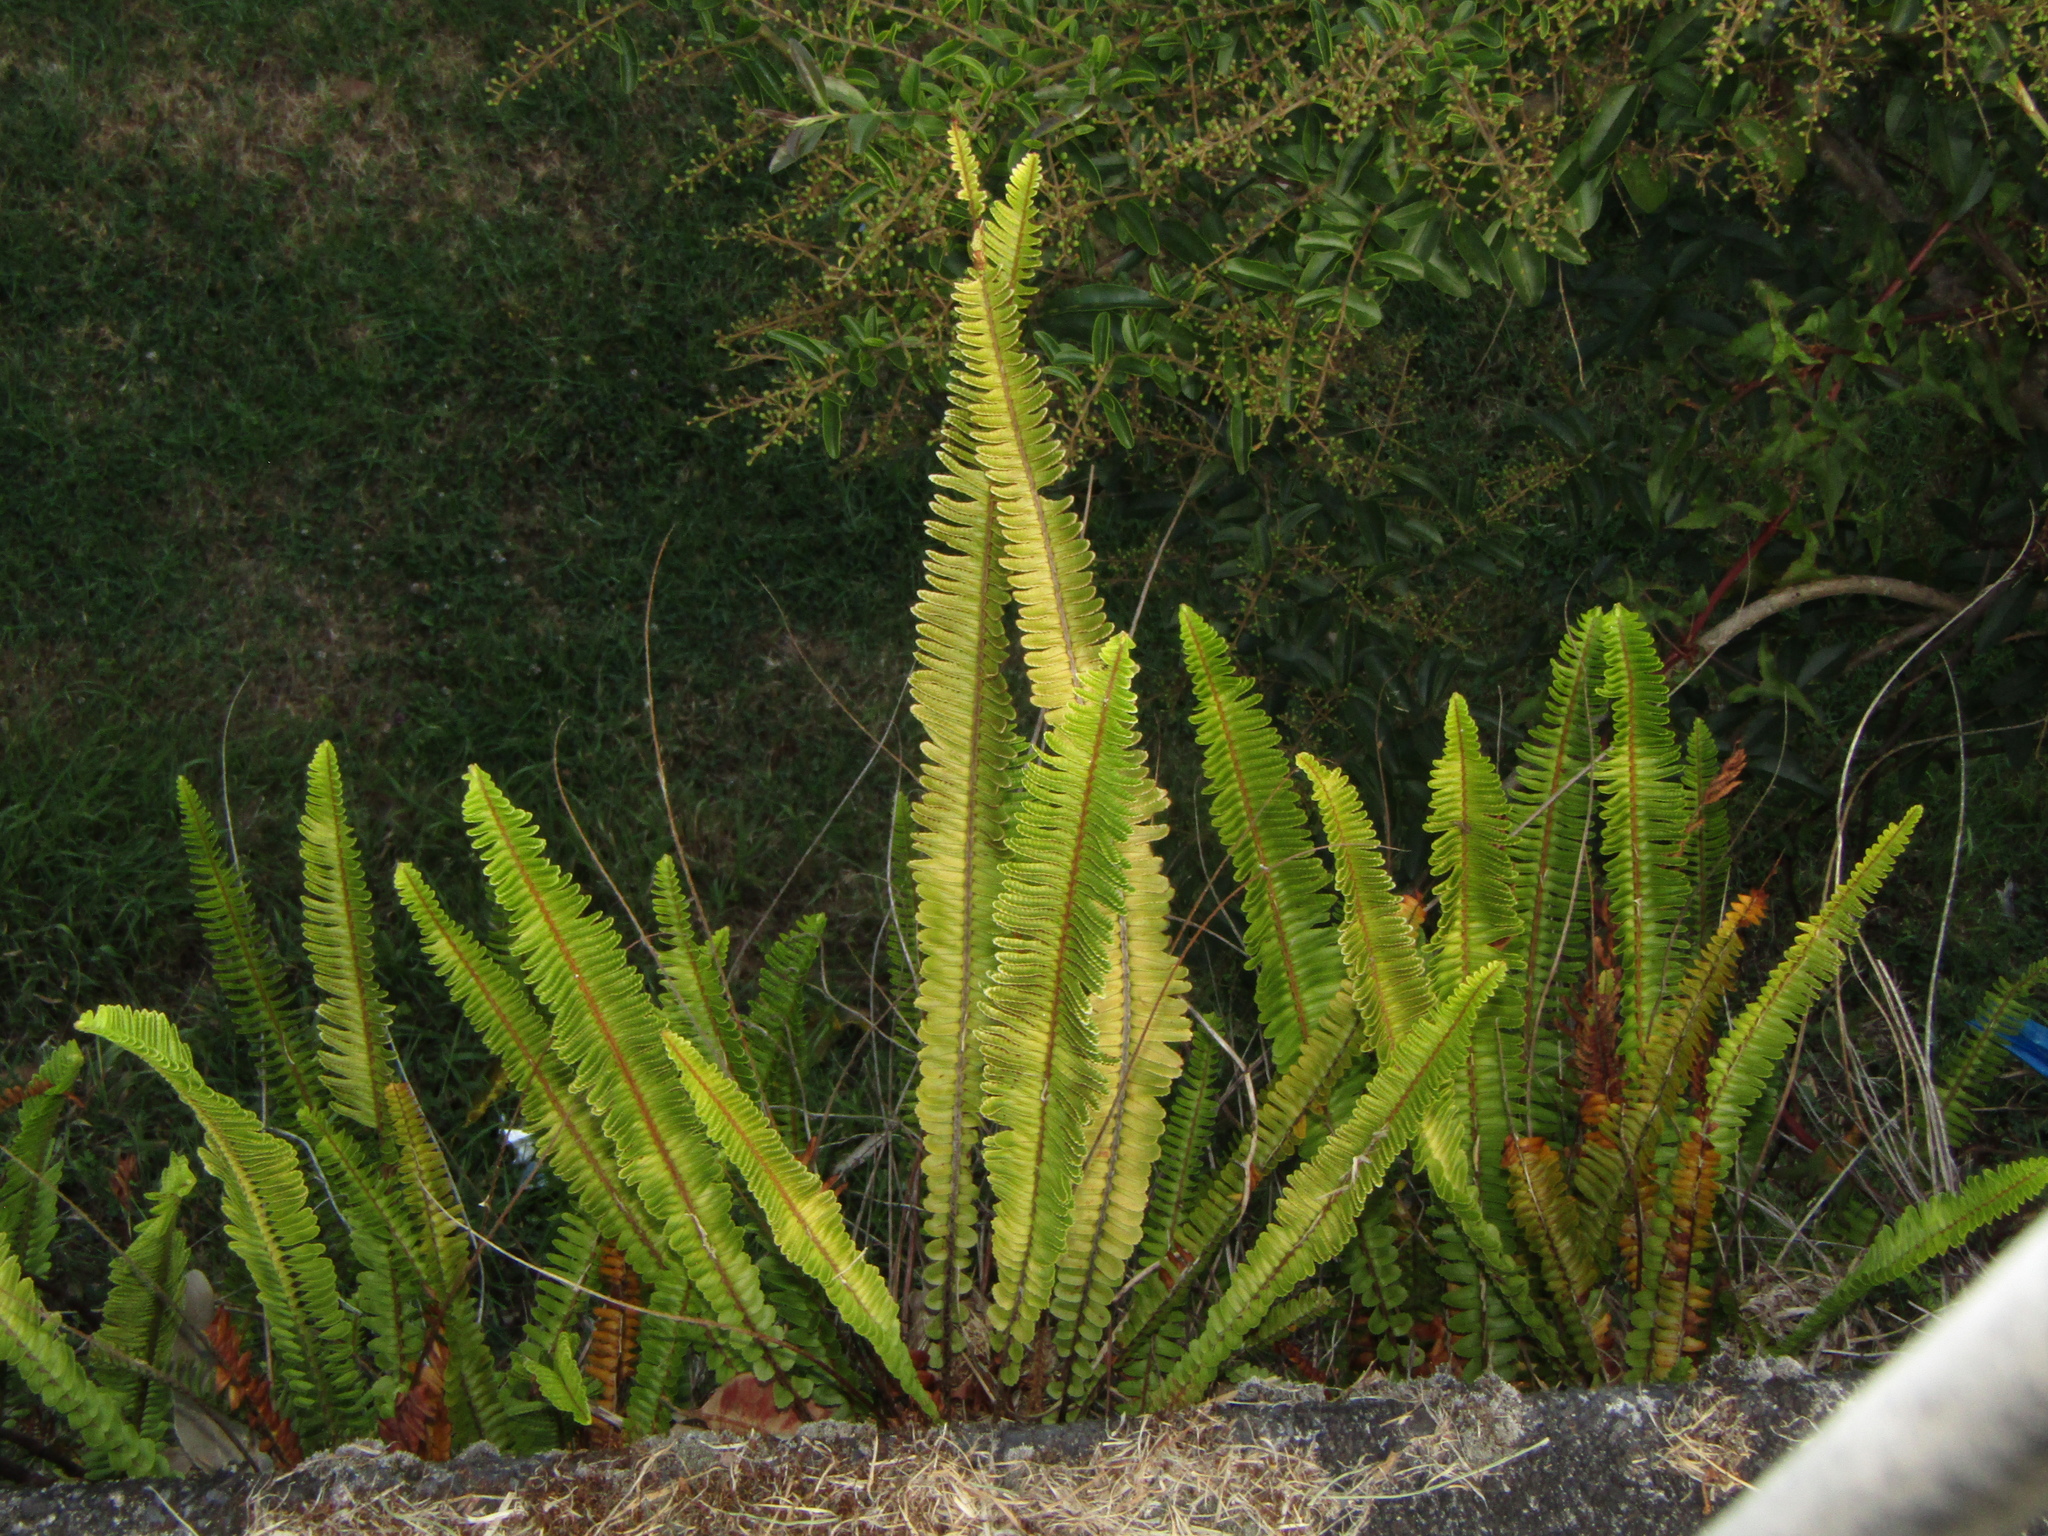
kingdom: Plantae
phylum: Tracheophyta
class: Polypodiopsida
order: Polypodiales
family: Nephrolepidaceae
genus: Nephrolepis
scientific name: Nephrolepis cordifolia
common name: Narrow swordfern
